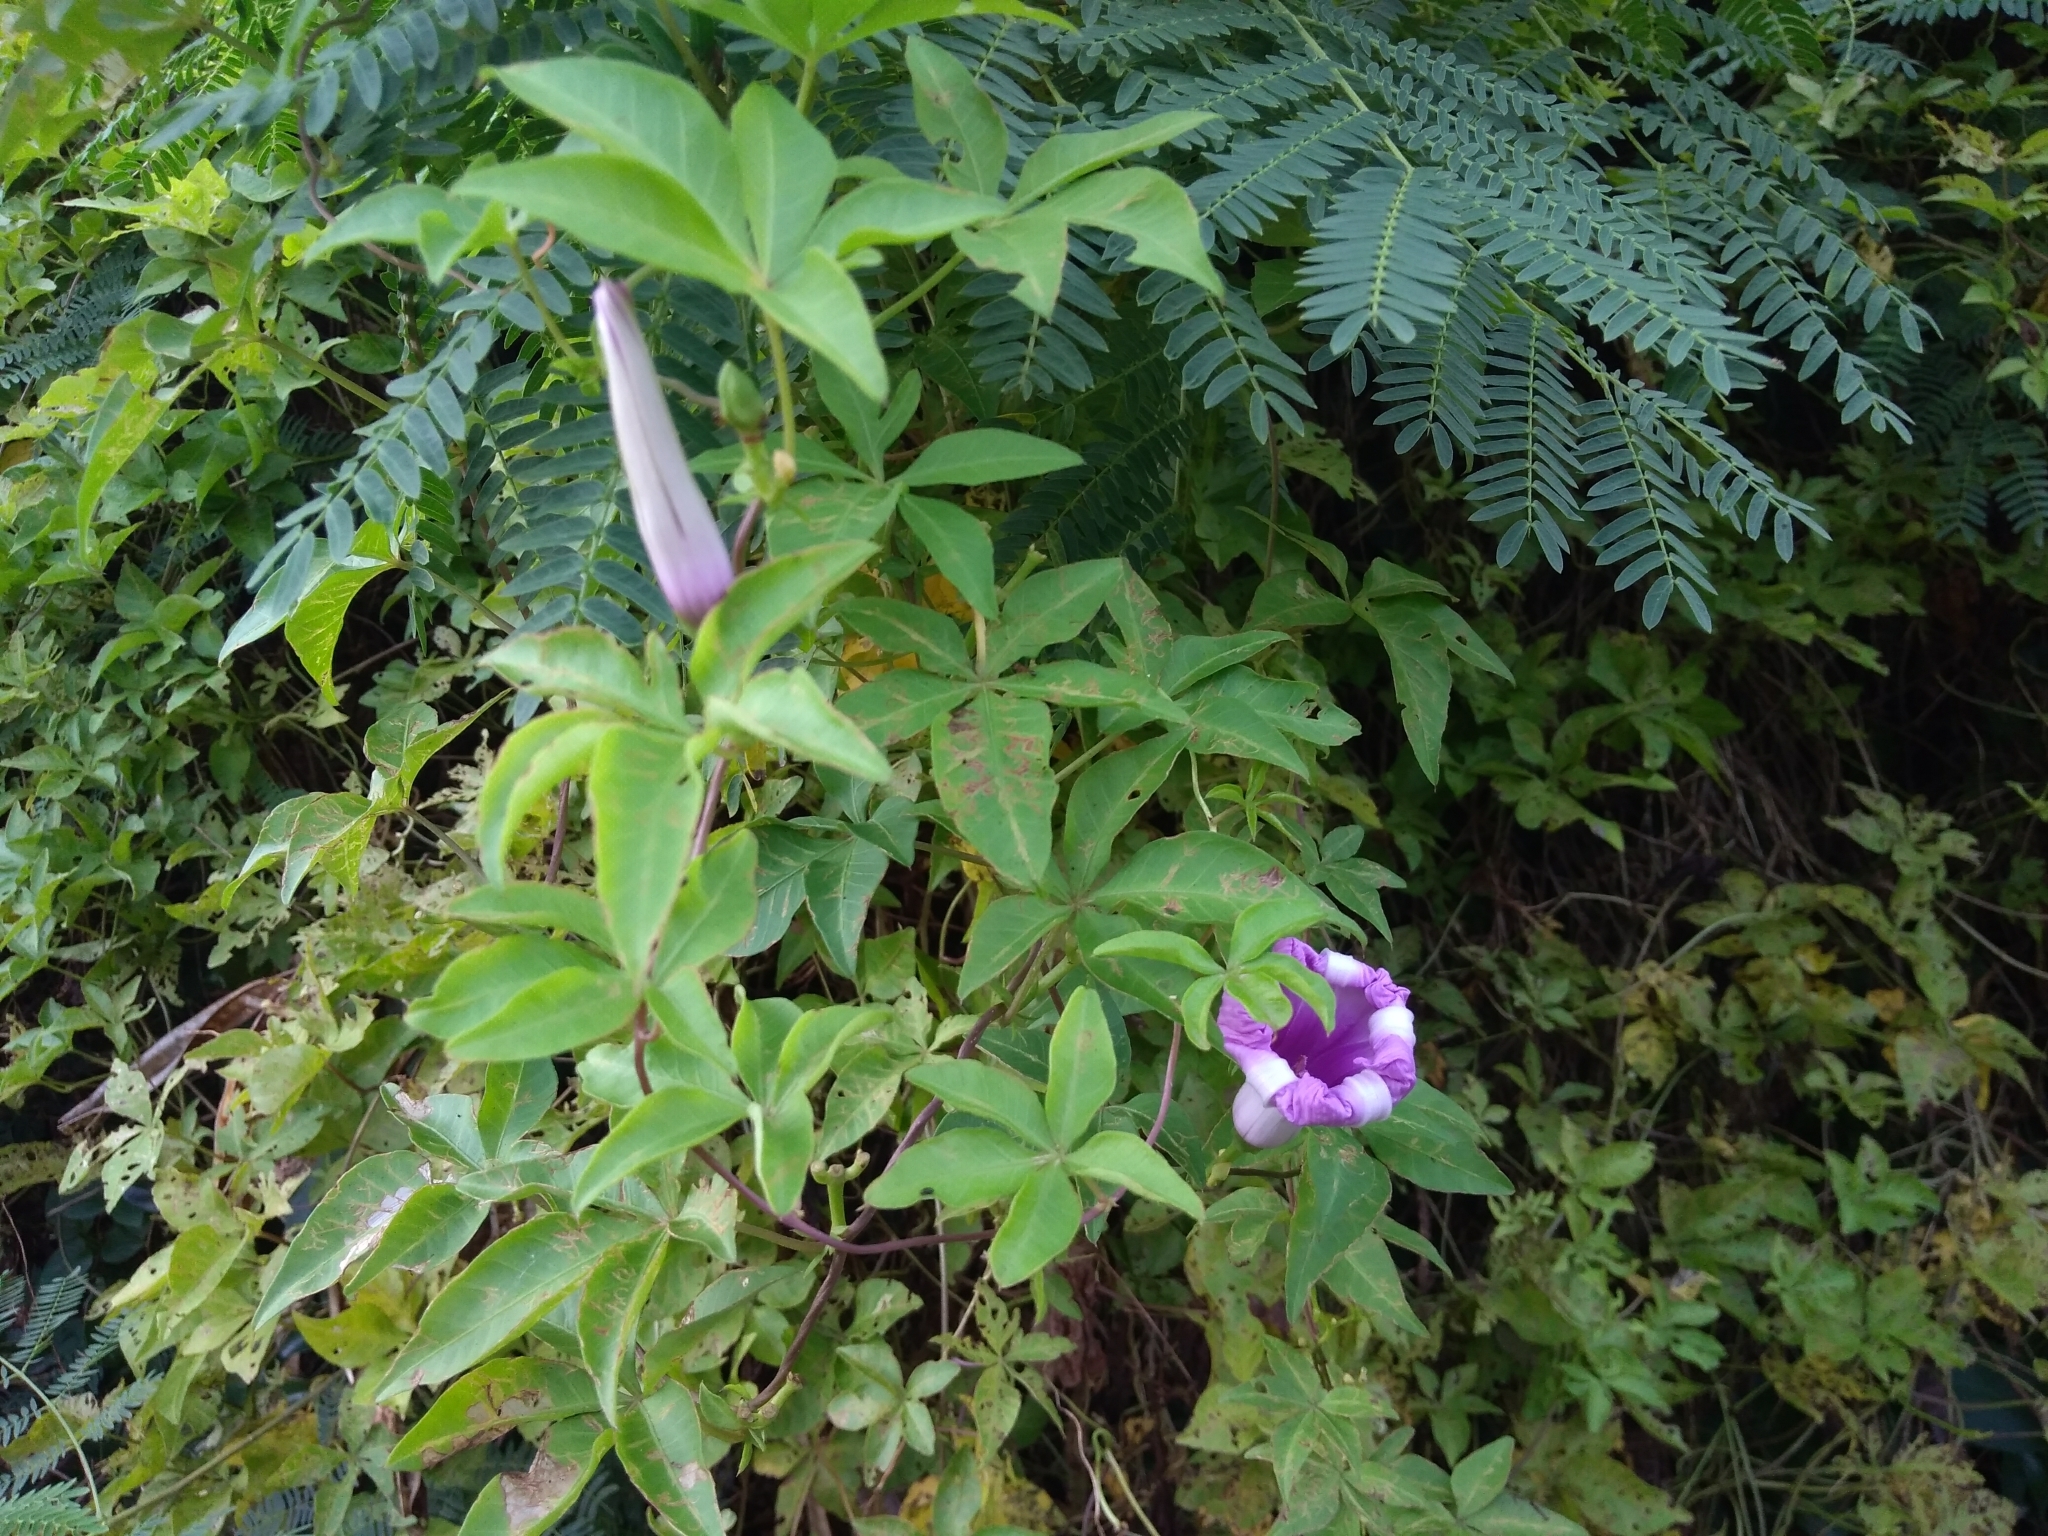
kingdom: Plantae
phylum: Tracheophyta
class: Magnoliopsida
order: Solanales
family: Convolvulaceae
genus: Ipomoea
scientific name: Ipomoea cairica
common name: Mile a minute vine
